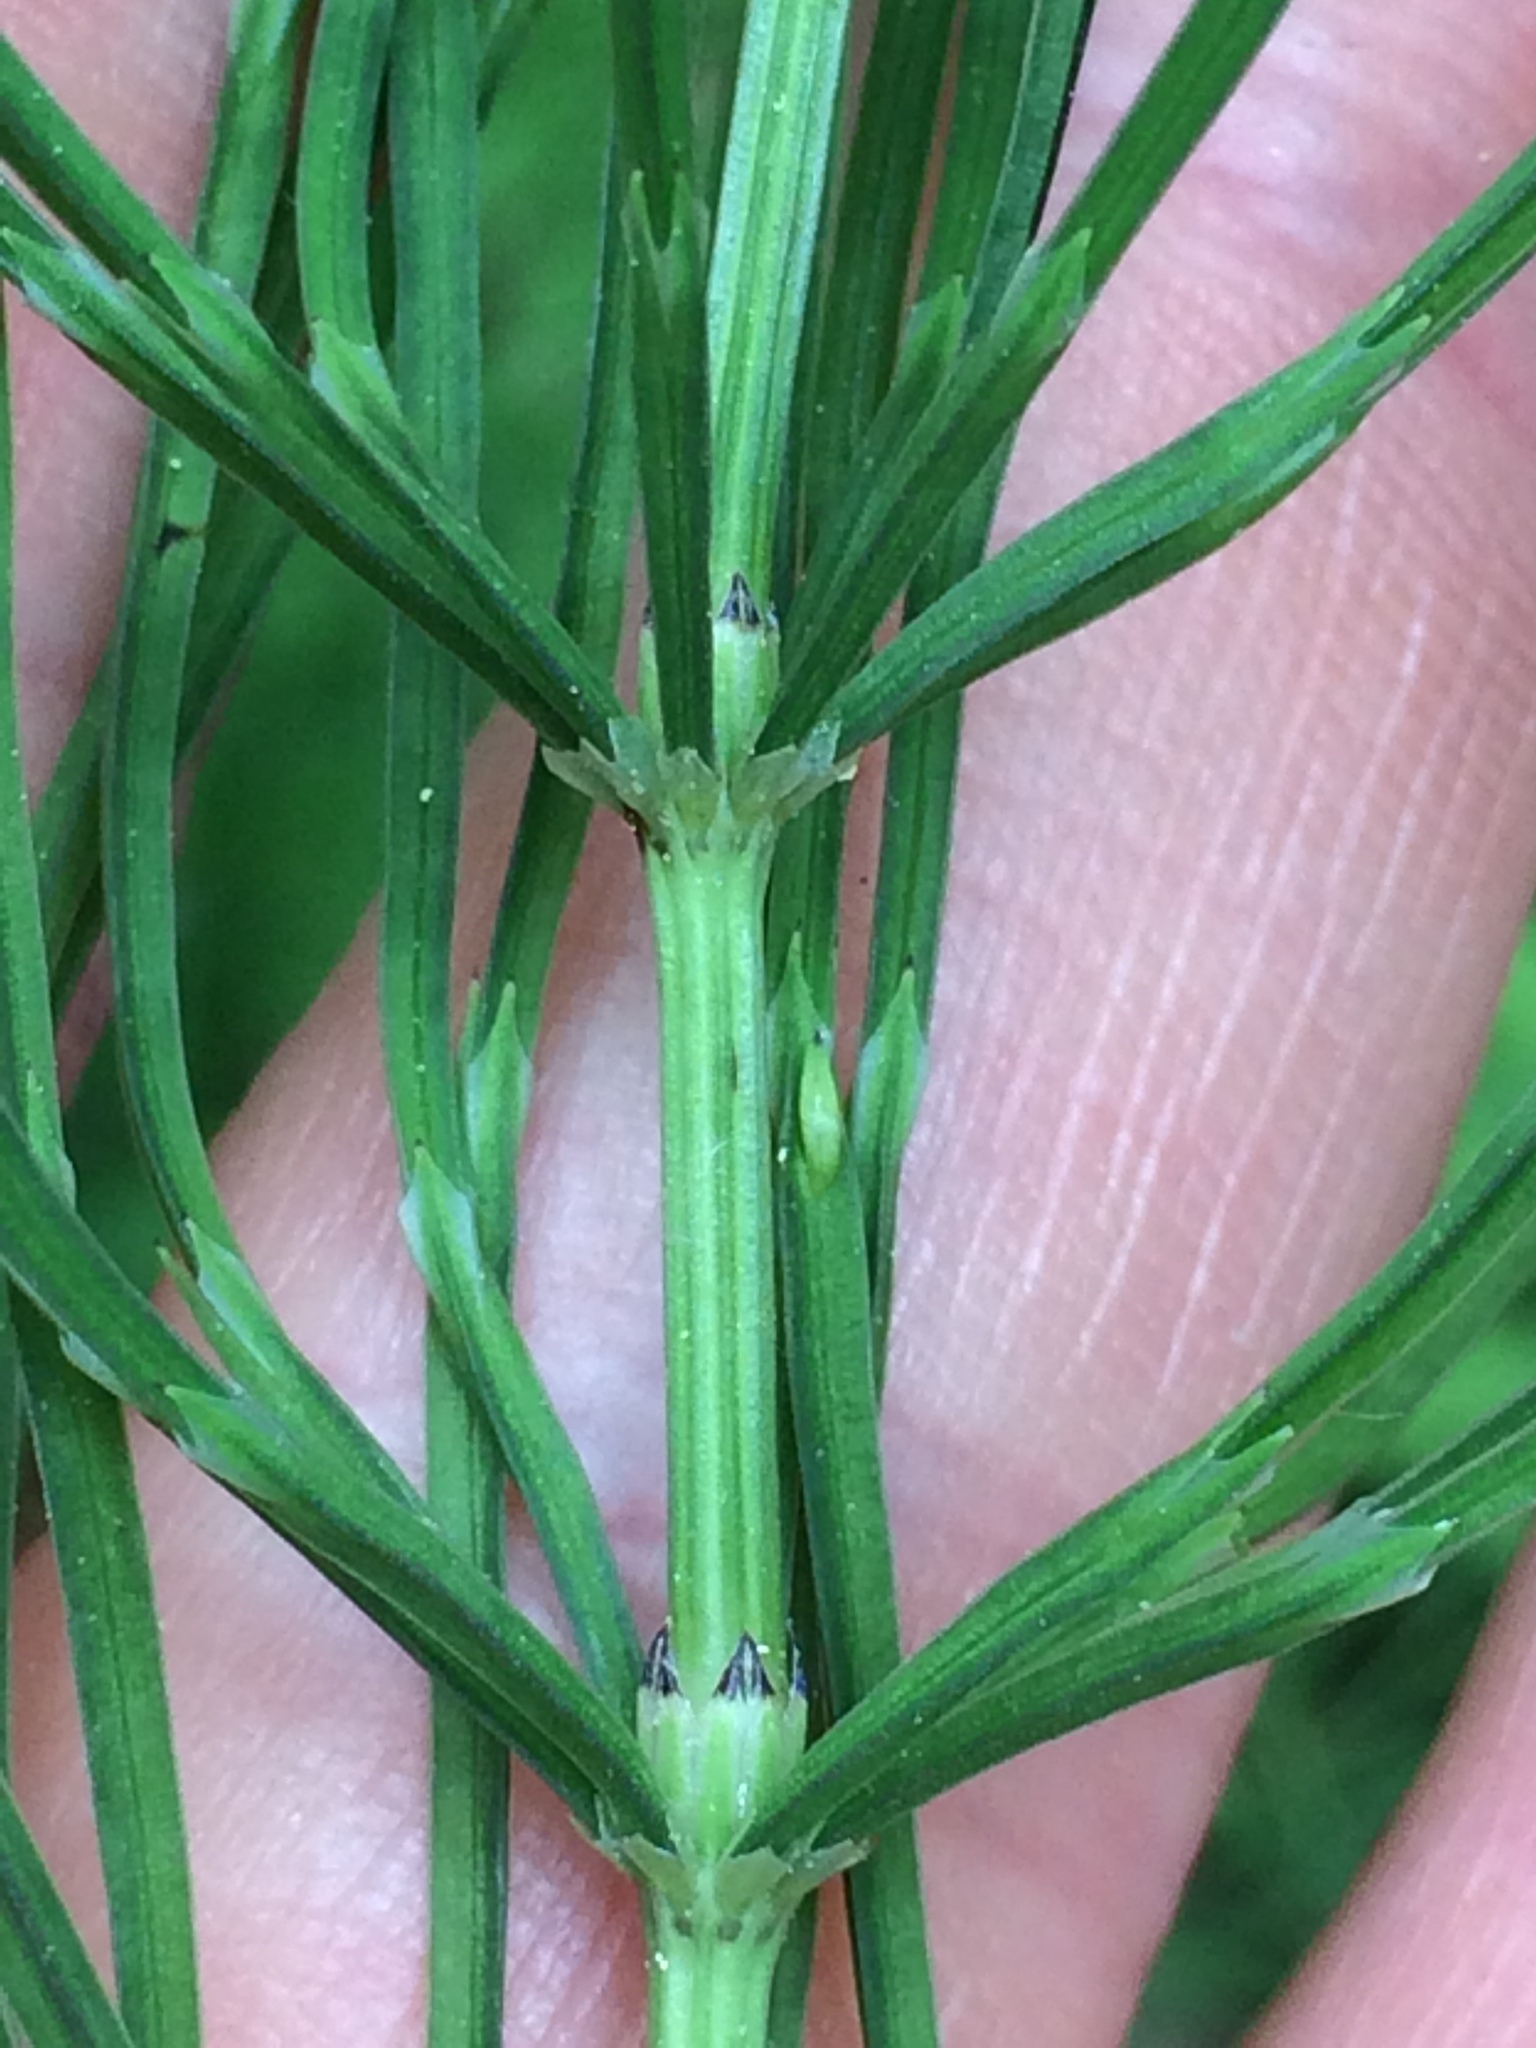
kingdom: Plantae
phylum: Tracheophyta
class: Polypodiopsida
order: Equisetales
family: Equisetaceae
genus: Equisetum
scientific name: Equisetum arvense
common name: Field horsetail
